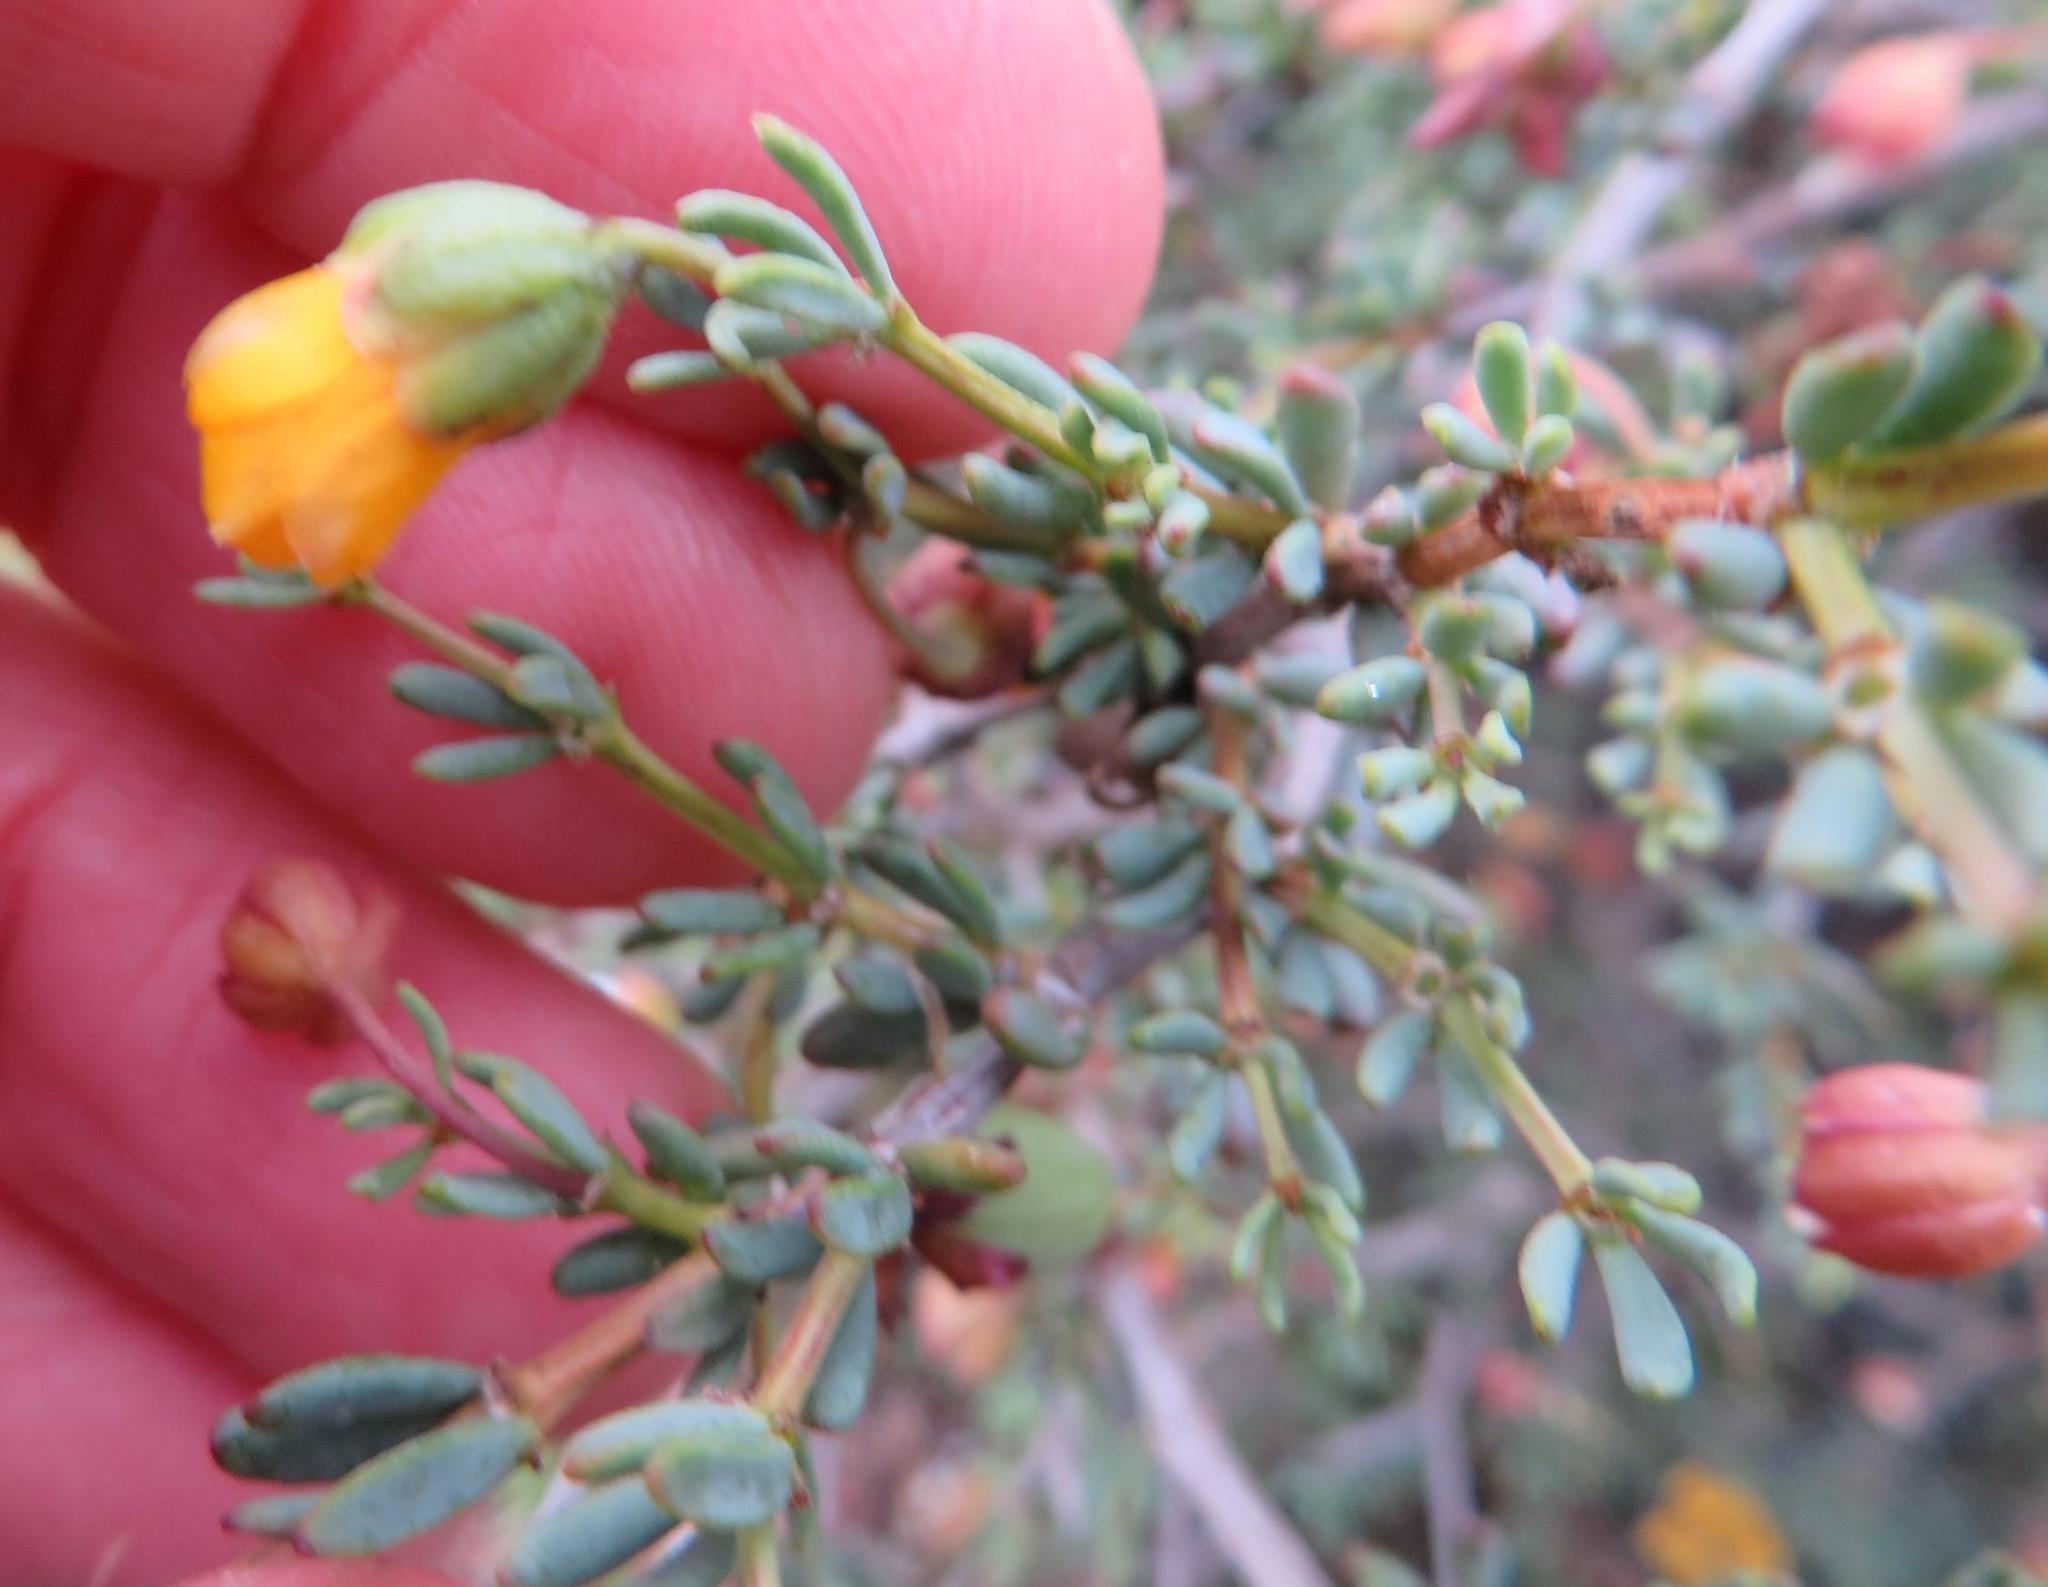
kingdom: Plantae
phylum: Tracheophyta
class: Magnoliopsida
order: Zygophyllales
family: Zygophyllaceae
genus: Roepera
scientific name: Roepera pygmaea
